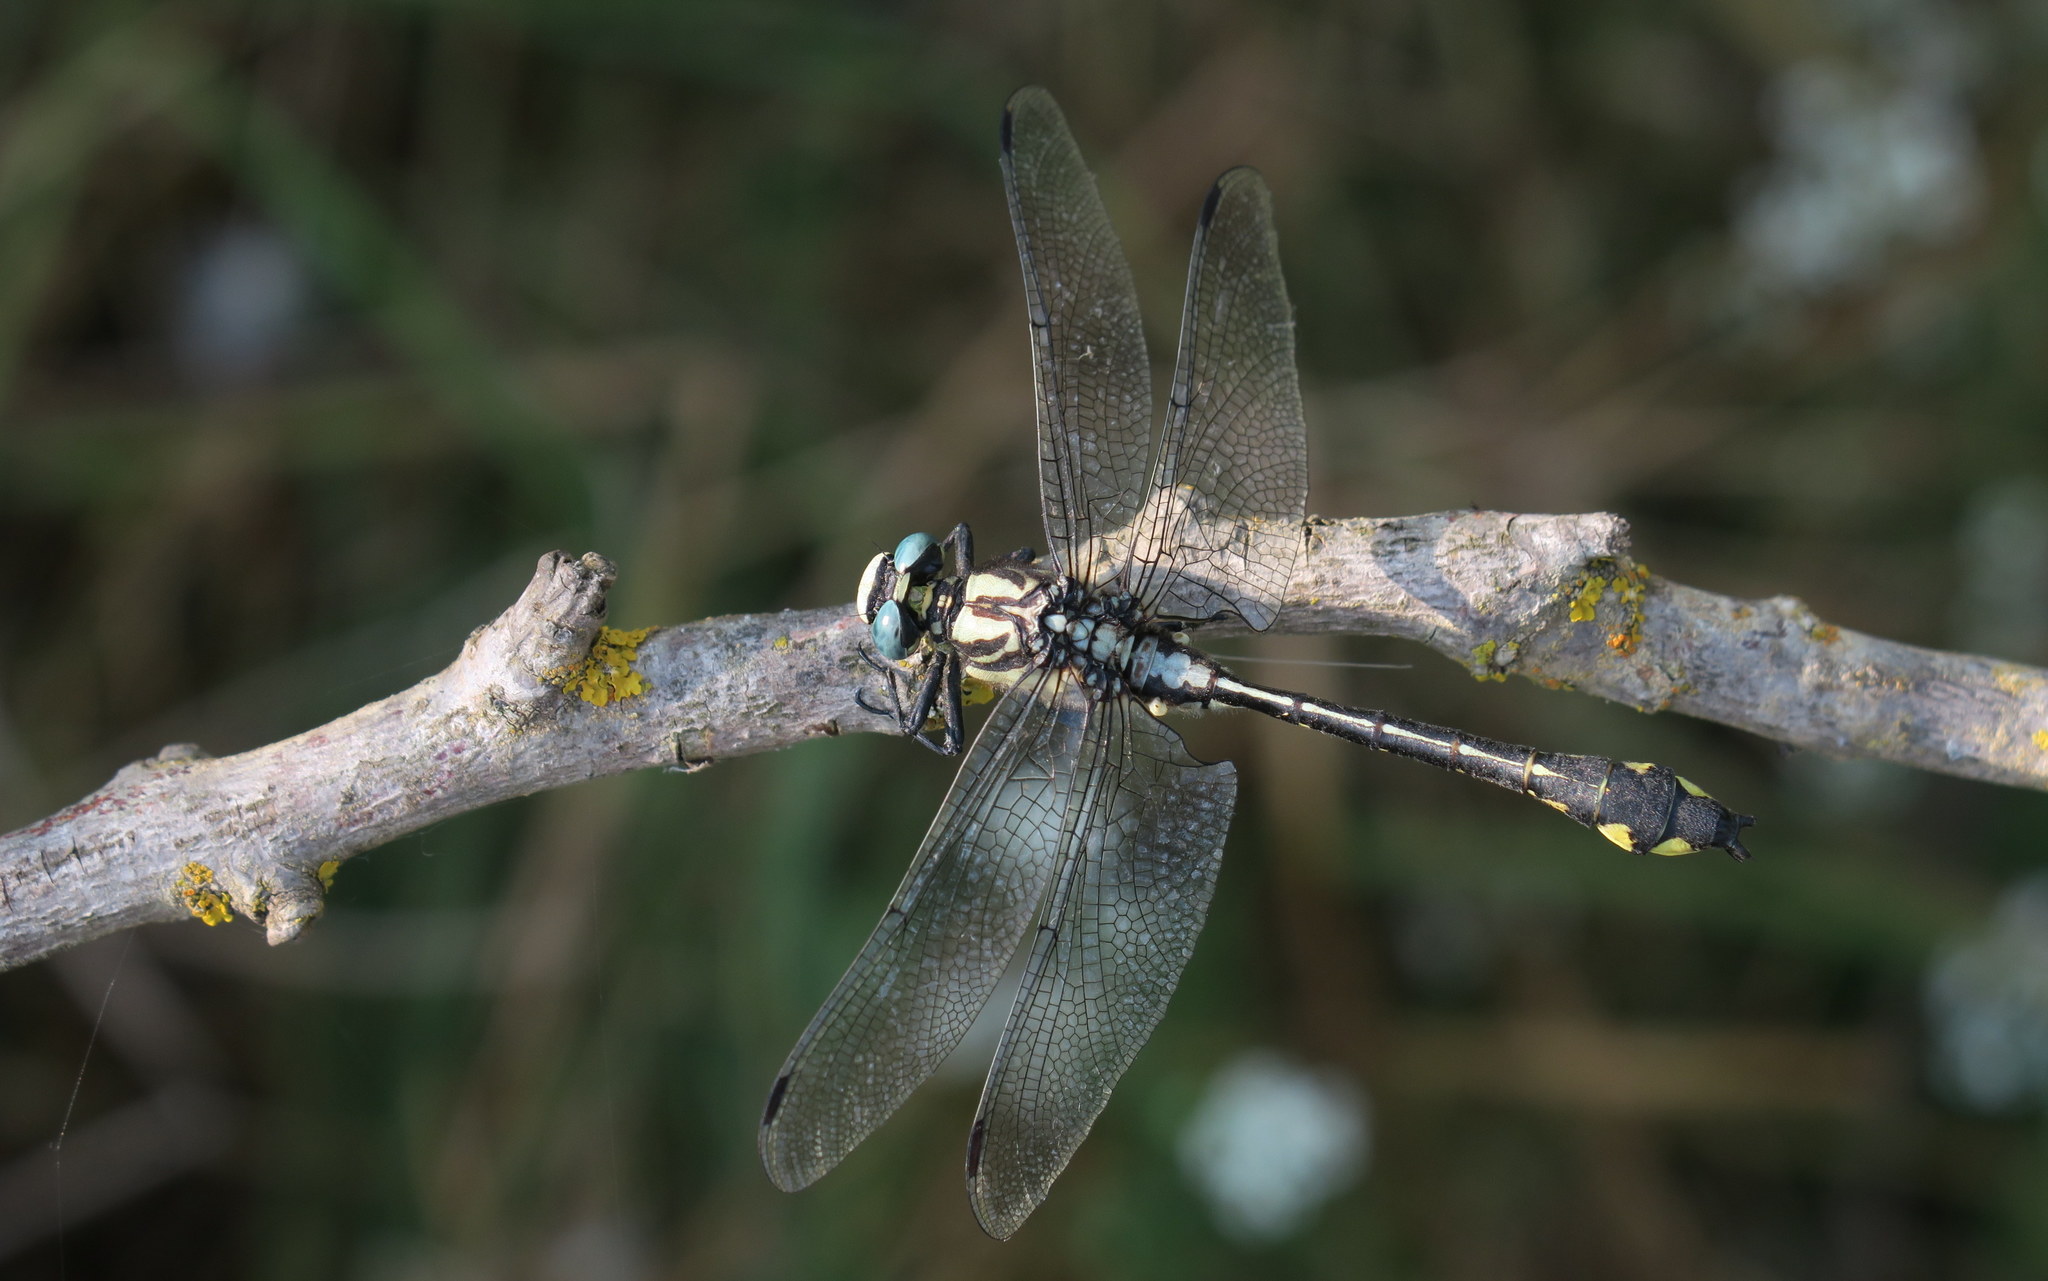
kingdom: Animalia
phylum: Arthropoda
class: Insecta
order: Odonata
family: Gomphidae
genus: Gomphus
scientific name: Gomphus schneiderii
